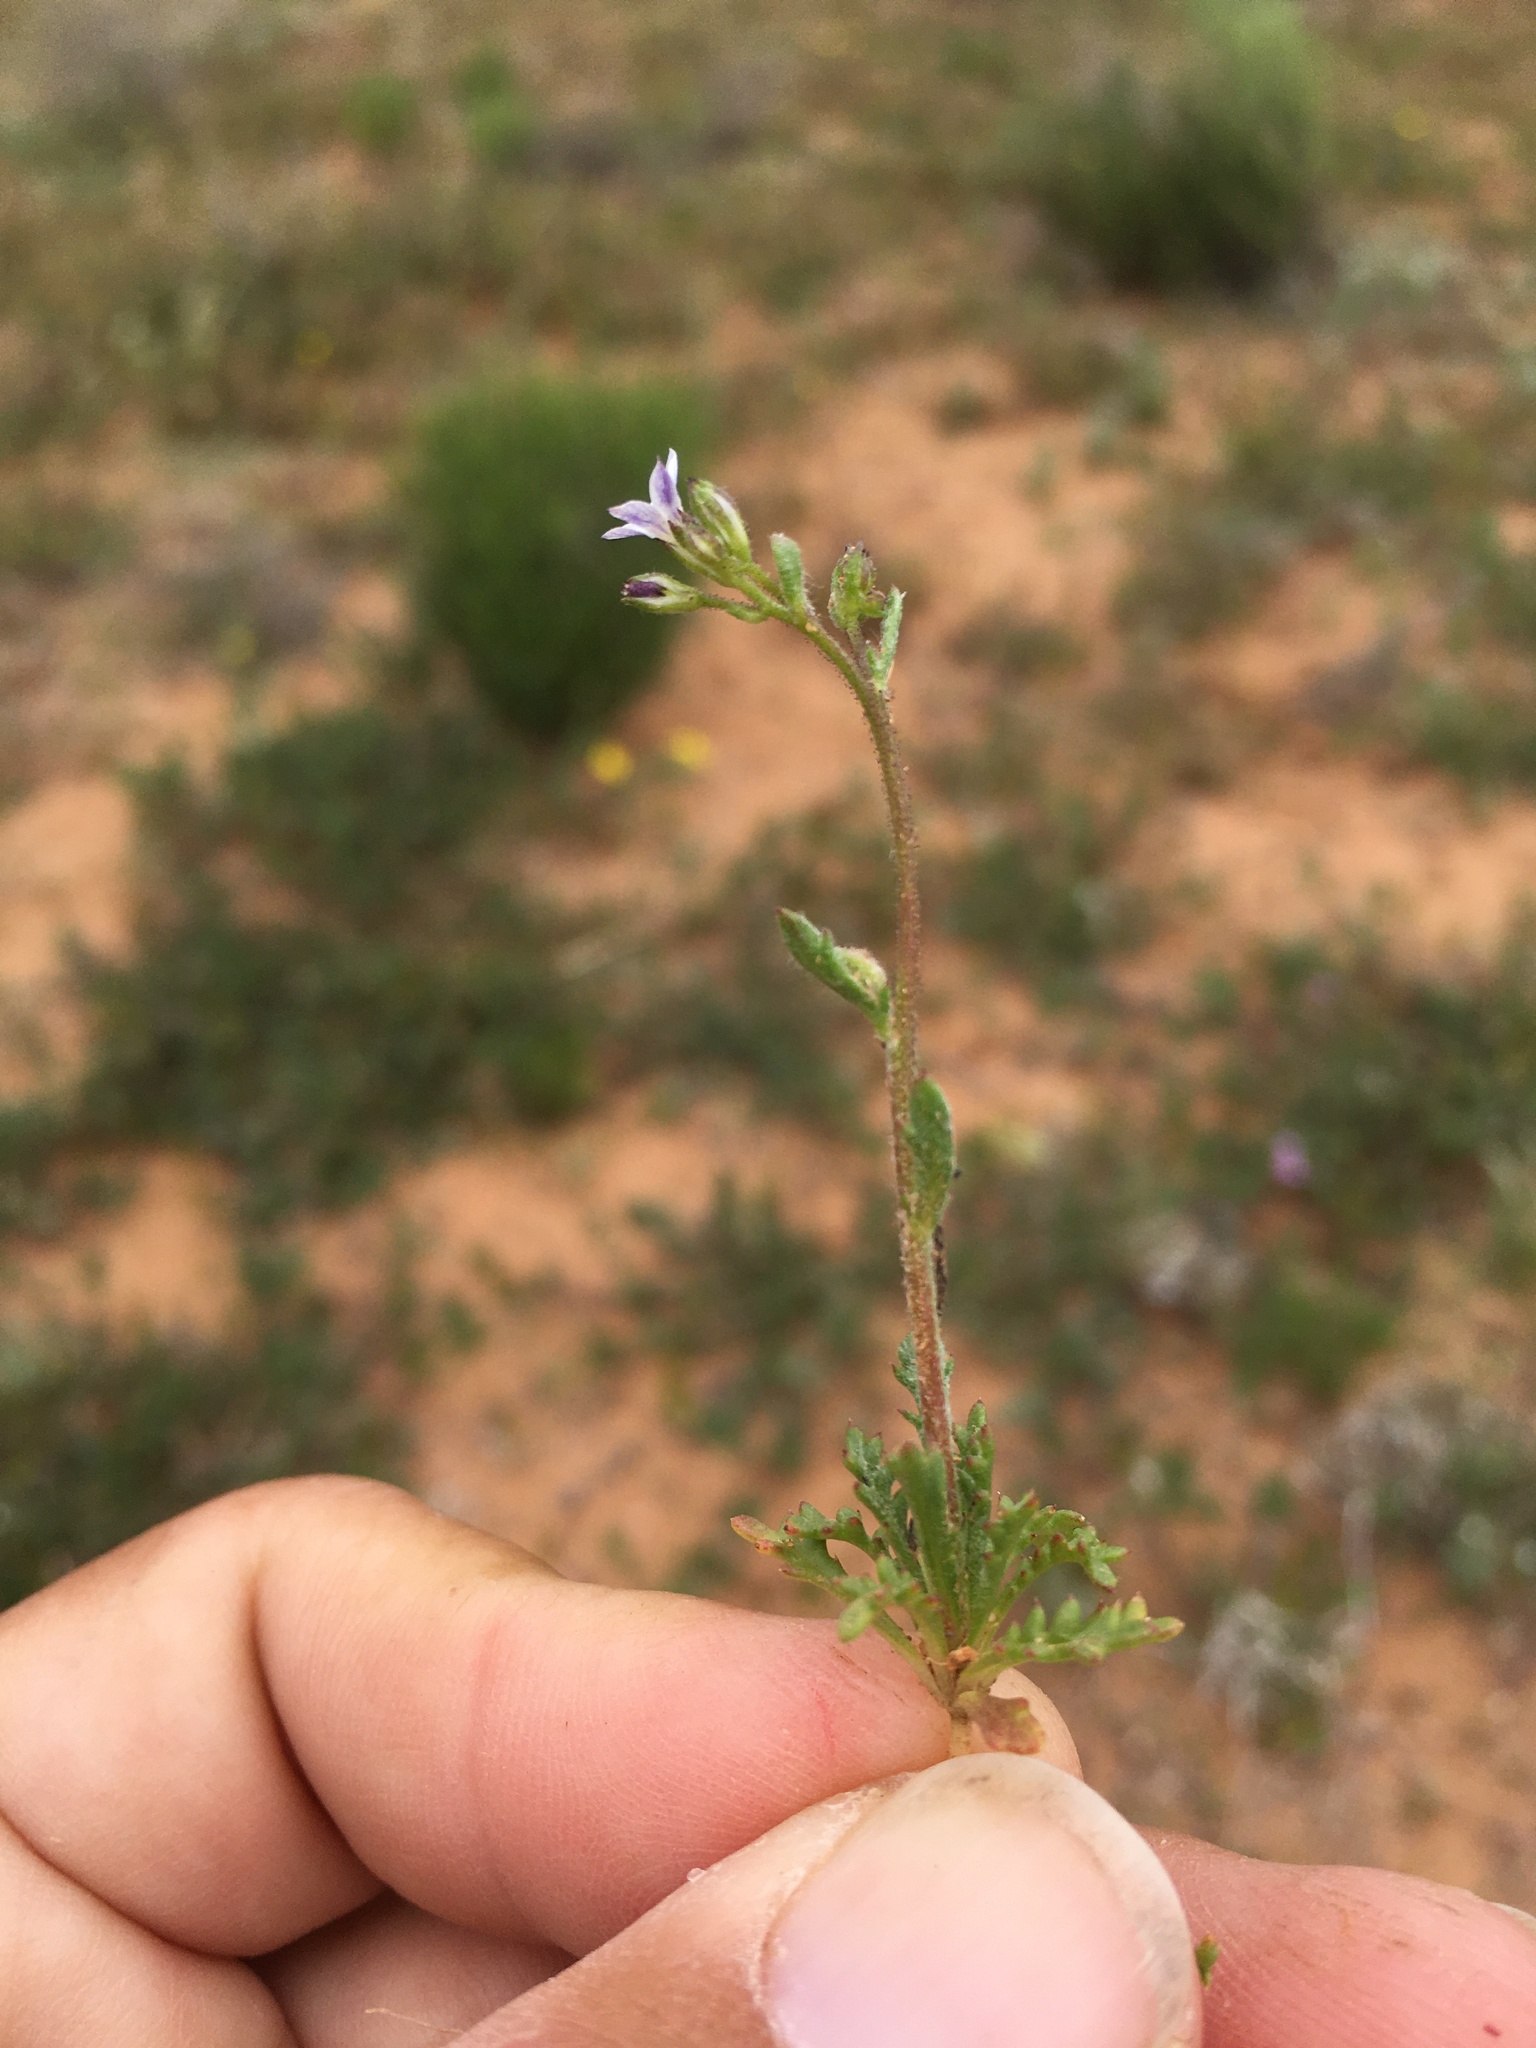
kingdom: Plantae
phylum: Tracheophyta
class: Magnoliopsida
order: Ericales
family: Polemoniaceae
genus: Gilia
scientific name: Gilia mexicana
